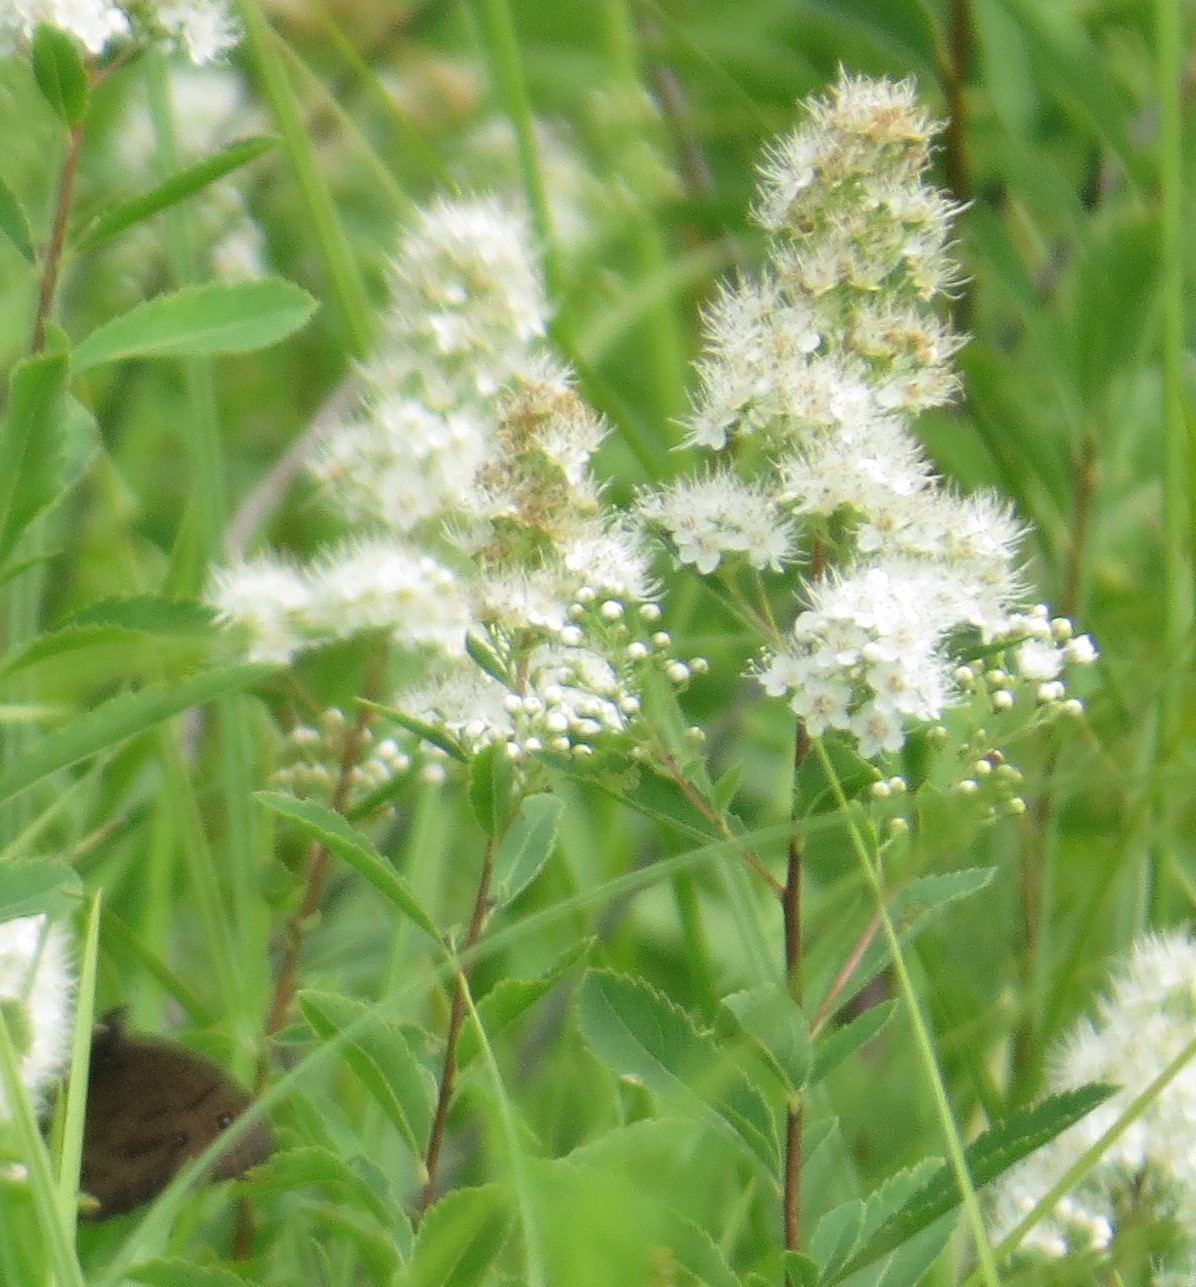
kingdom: Plantae
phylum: Tracheophyta
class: Magnoliopsida
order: Rosales
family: Rosaceae
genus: Spiraea
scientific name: Spiraea alba
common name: Pale bridewort
